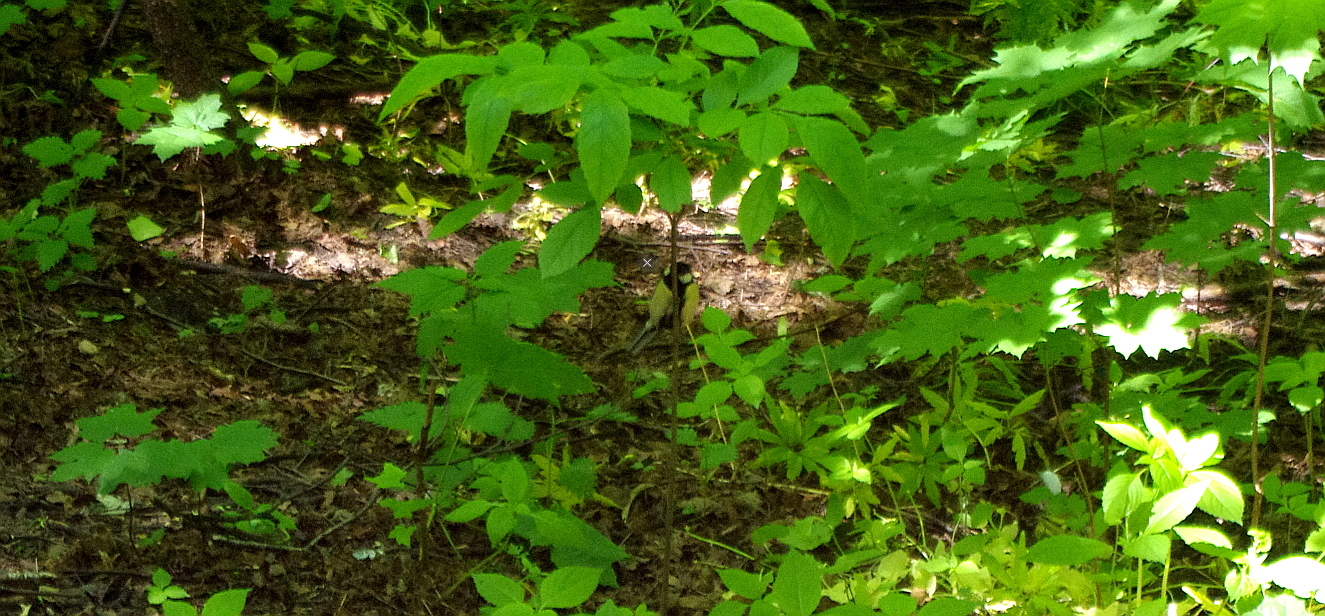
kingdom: Animalia
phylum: Chordata
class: Aves
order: Passeriformes
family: Paridae
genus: Parus
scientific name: Parus major
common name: Great tit
